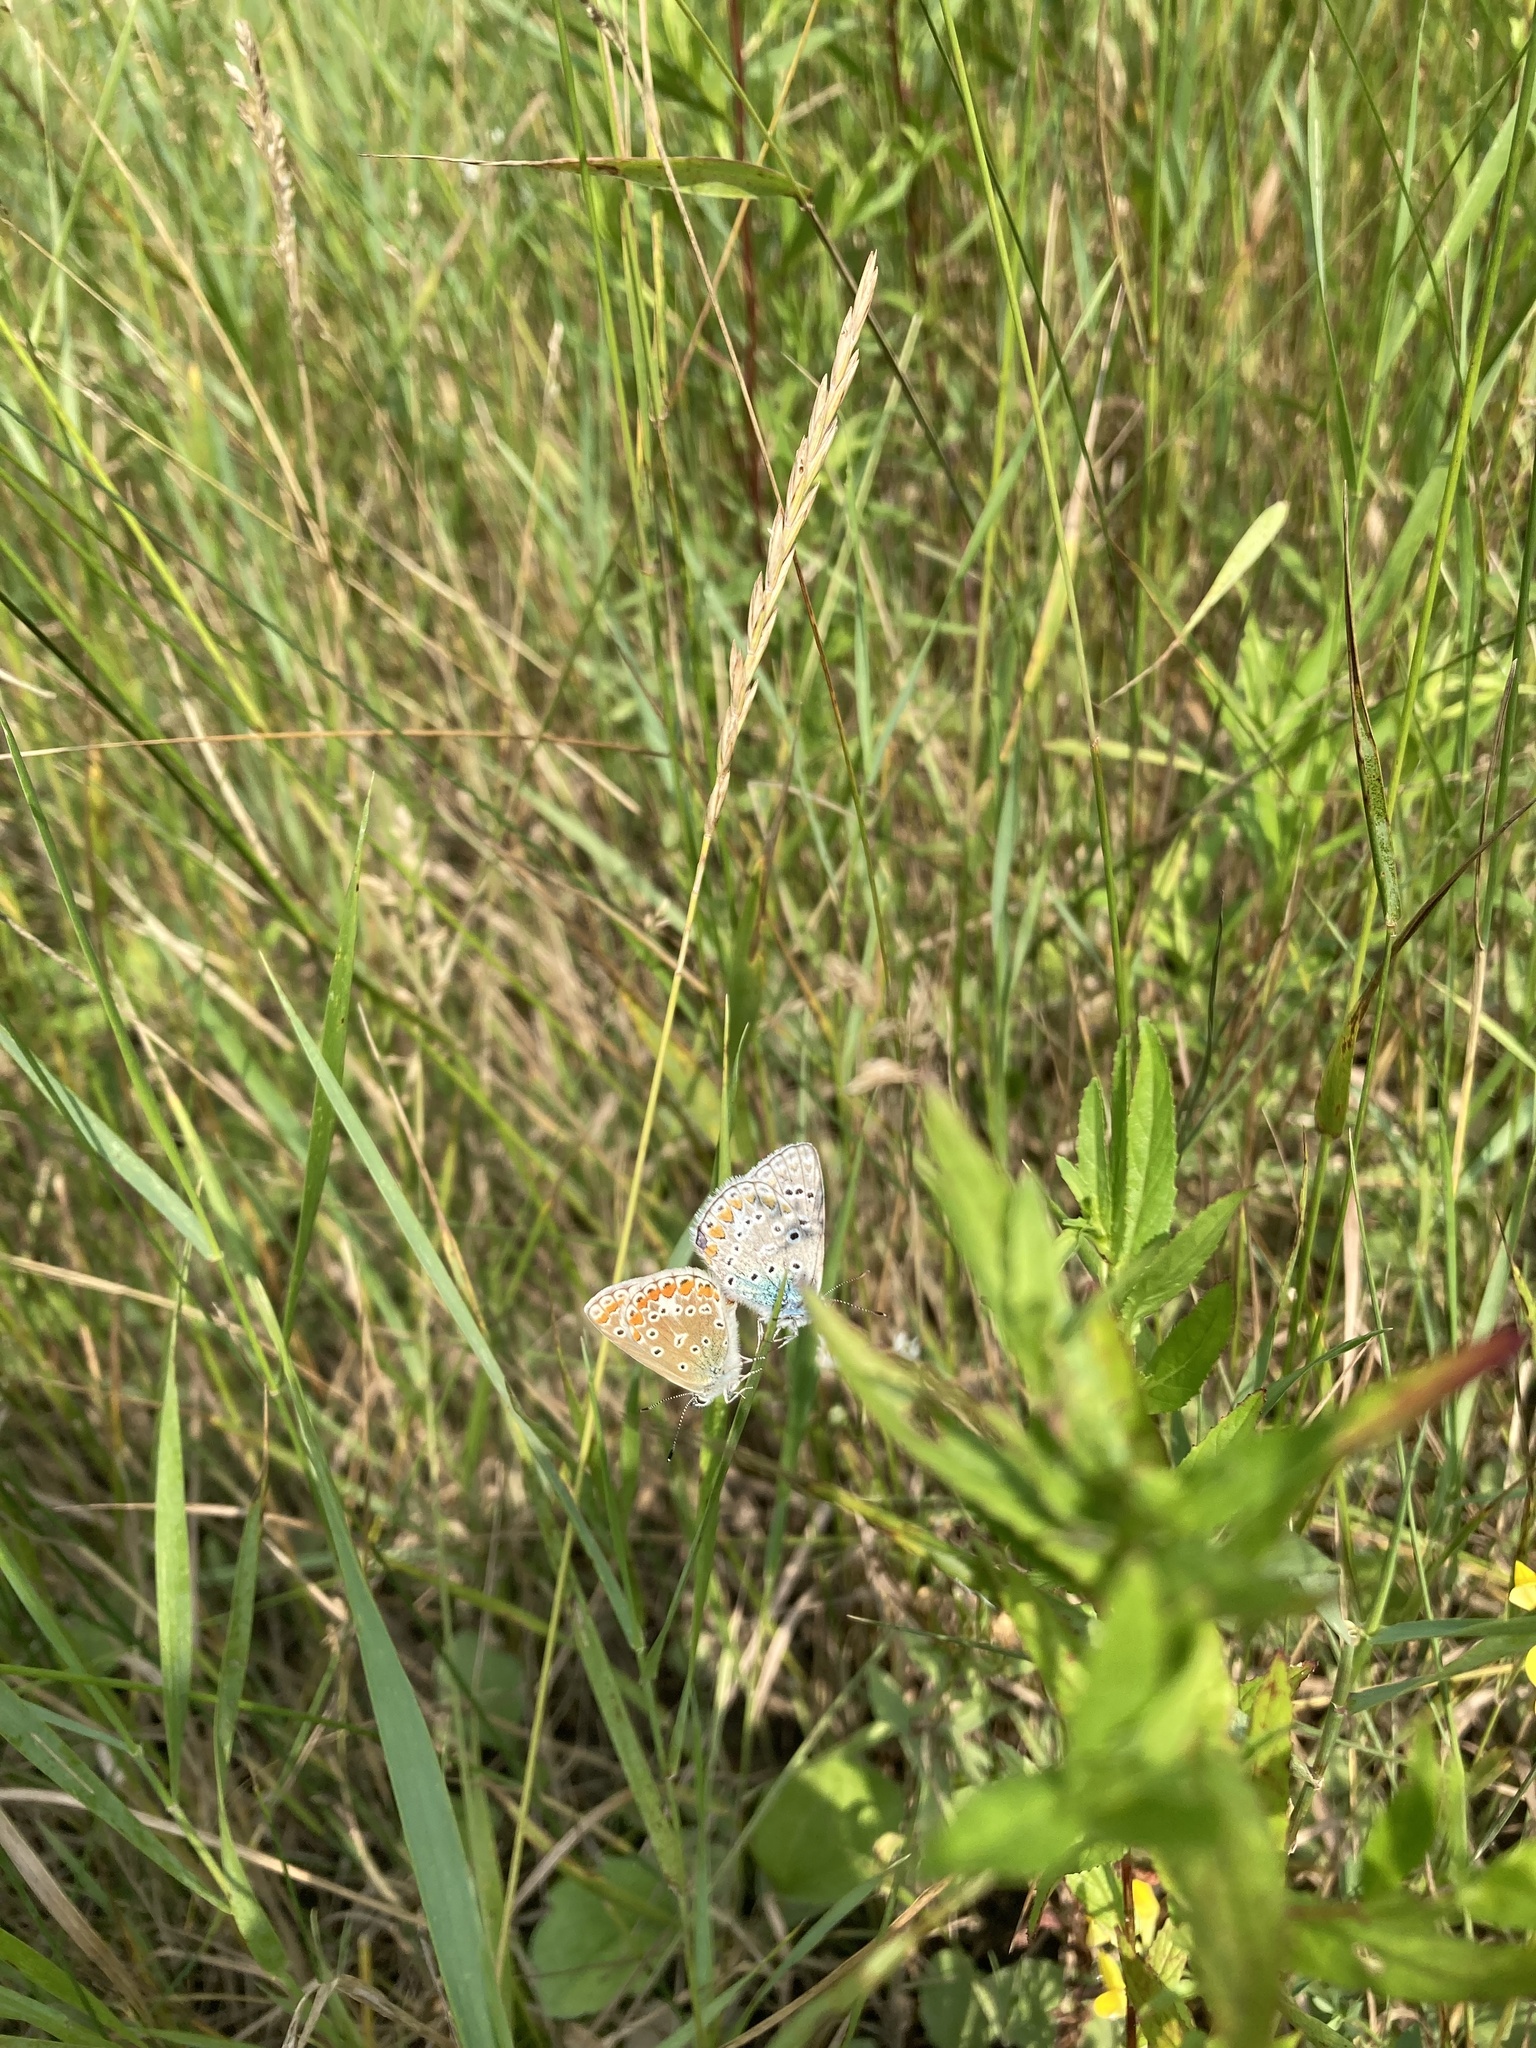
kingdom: Animalia
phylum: Arthropoda
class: Insecta
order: Lepidoptera
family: Lycaenidae
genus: Polyommatus
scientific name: Polyommatus icarus
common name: Common blue
